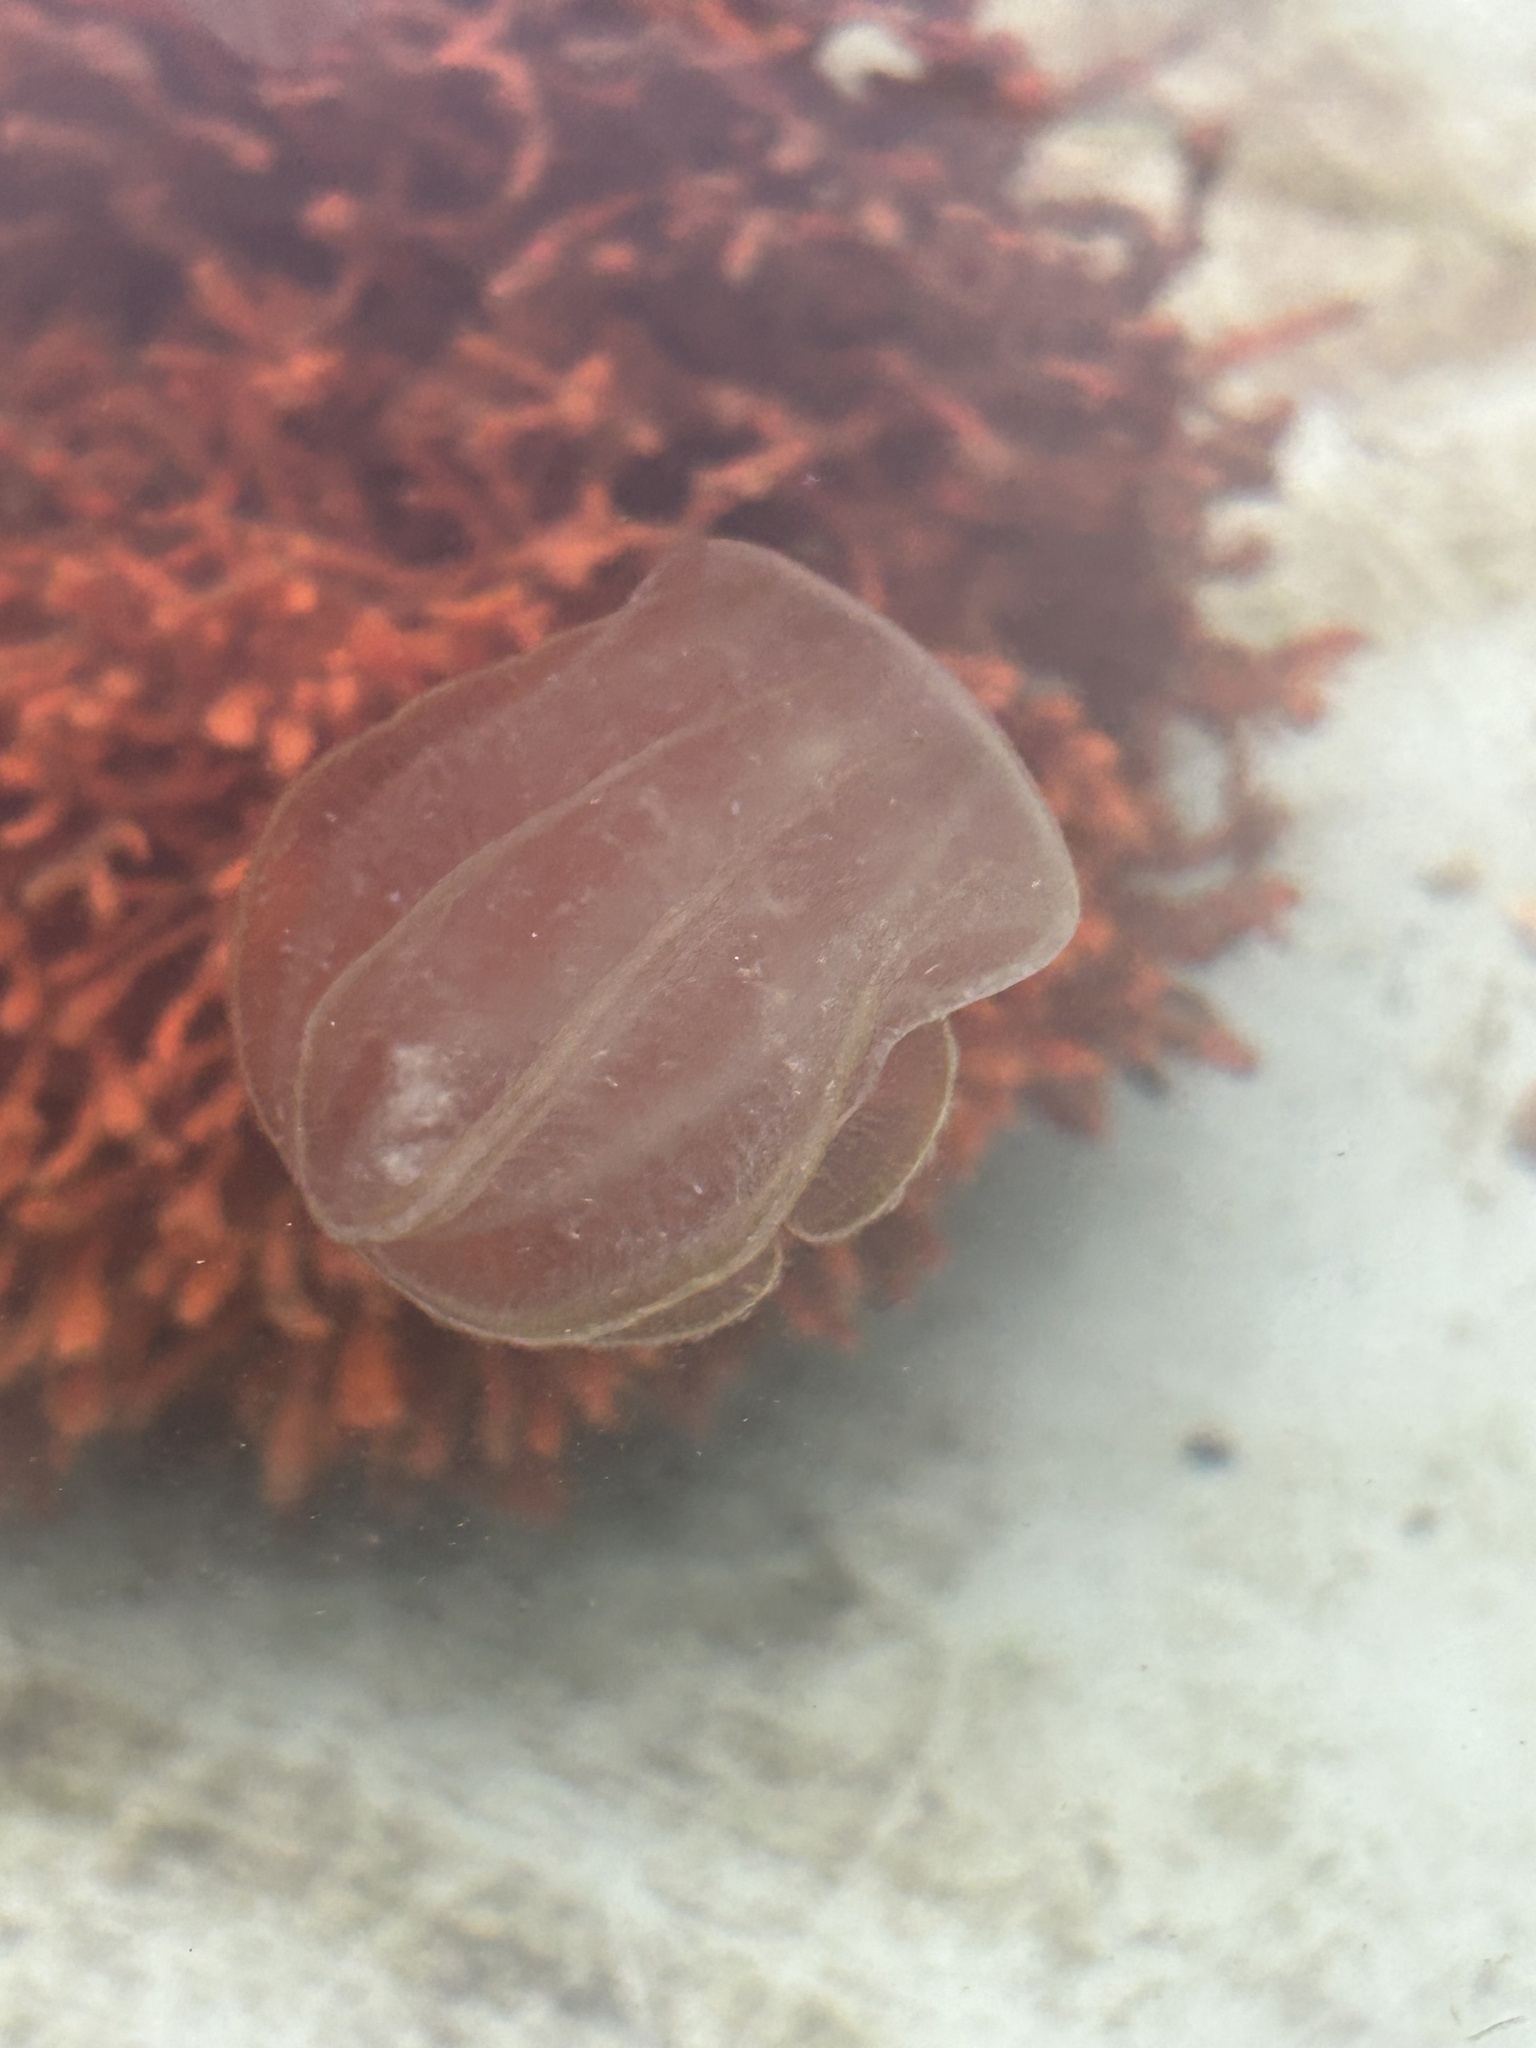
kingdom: Animalia
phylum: Ctenophora
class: Nuda
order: Beroida
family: Beroidae
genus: Beroe
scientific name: Beroe ovata
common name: Flattened helmet comb jelly
